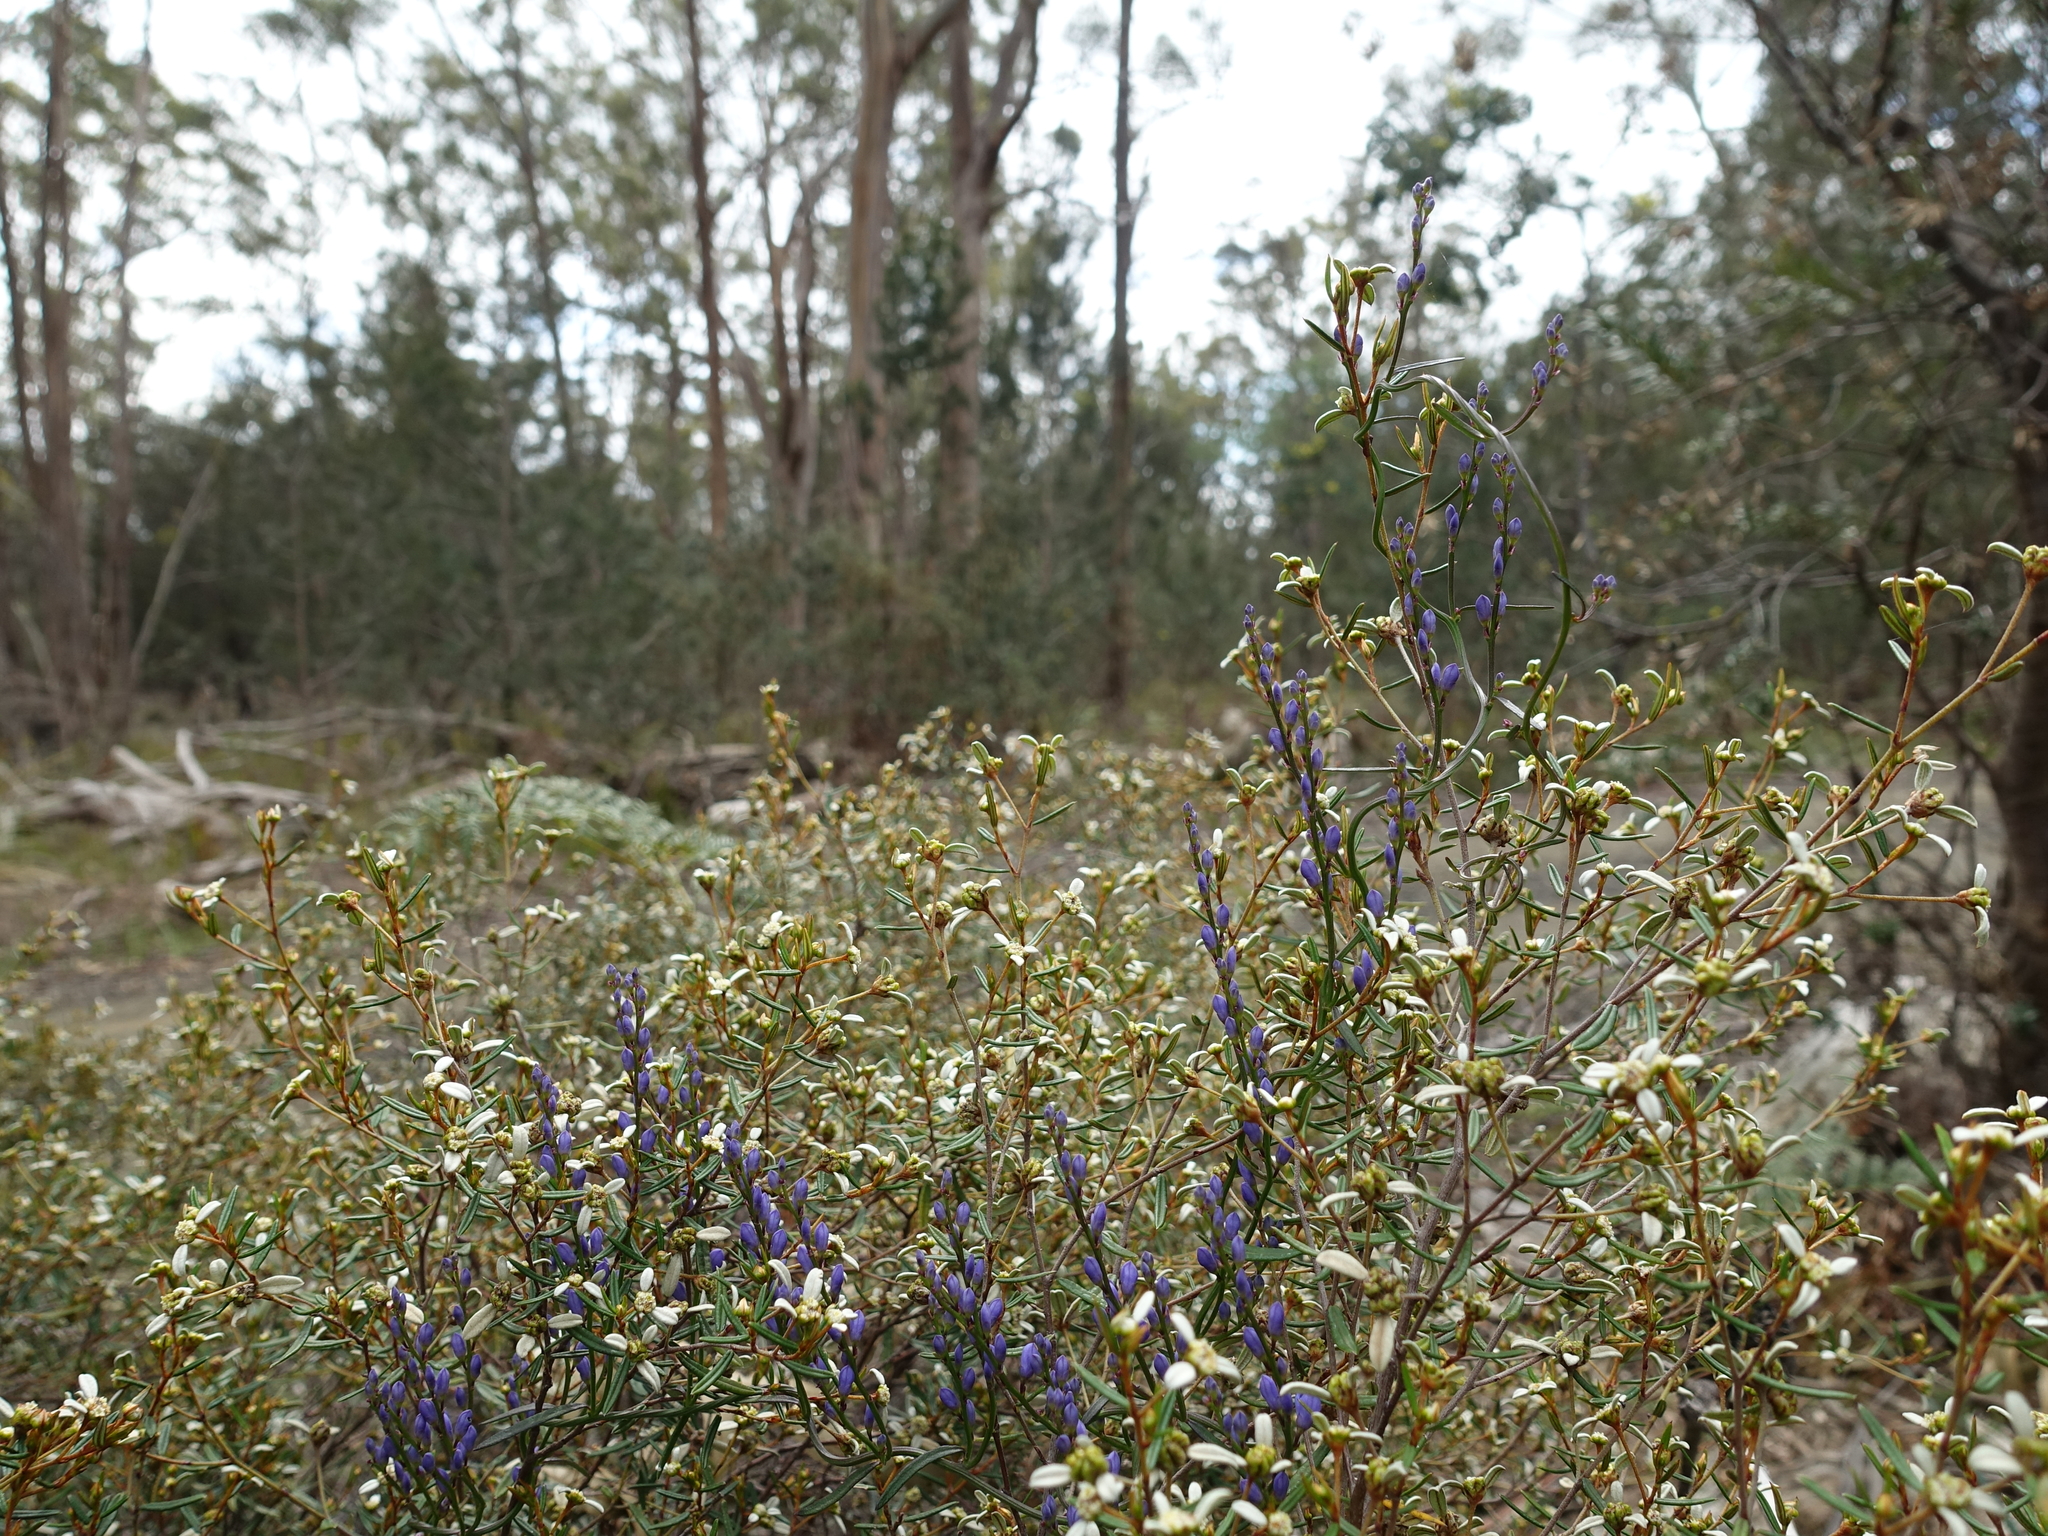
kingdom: Plantae
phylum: Tracheophyta
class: Magnoliopsida
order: Fabales
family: Polygalaceae
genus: Comesperma
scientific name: Comesperma volubile
